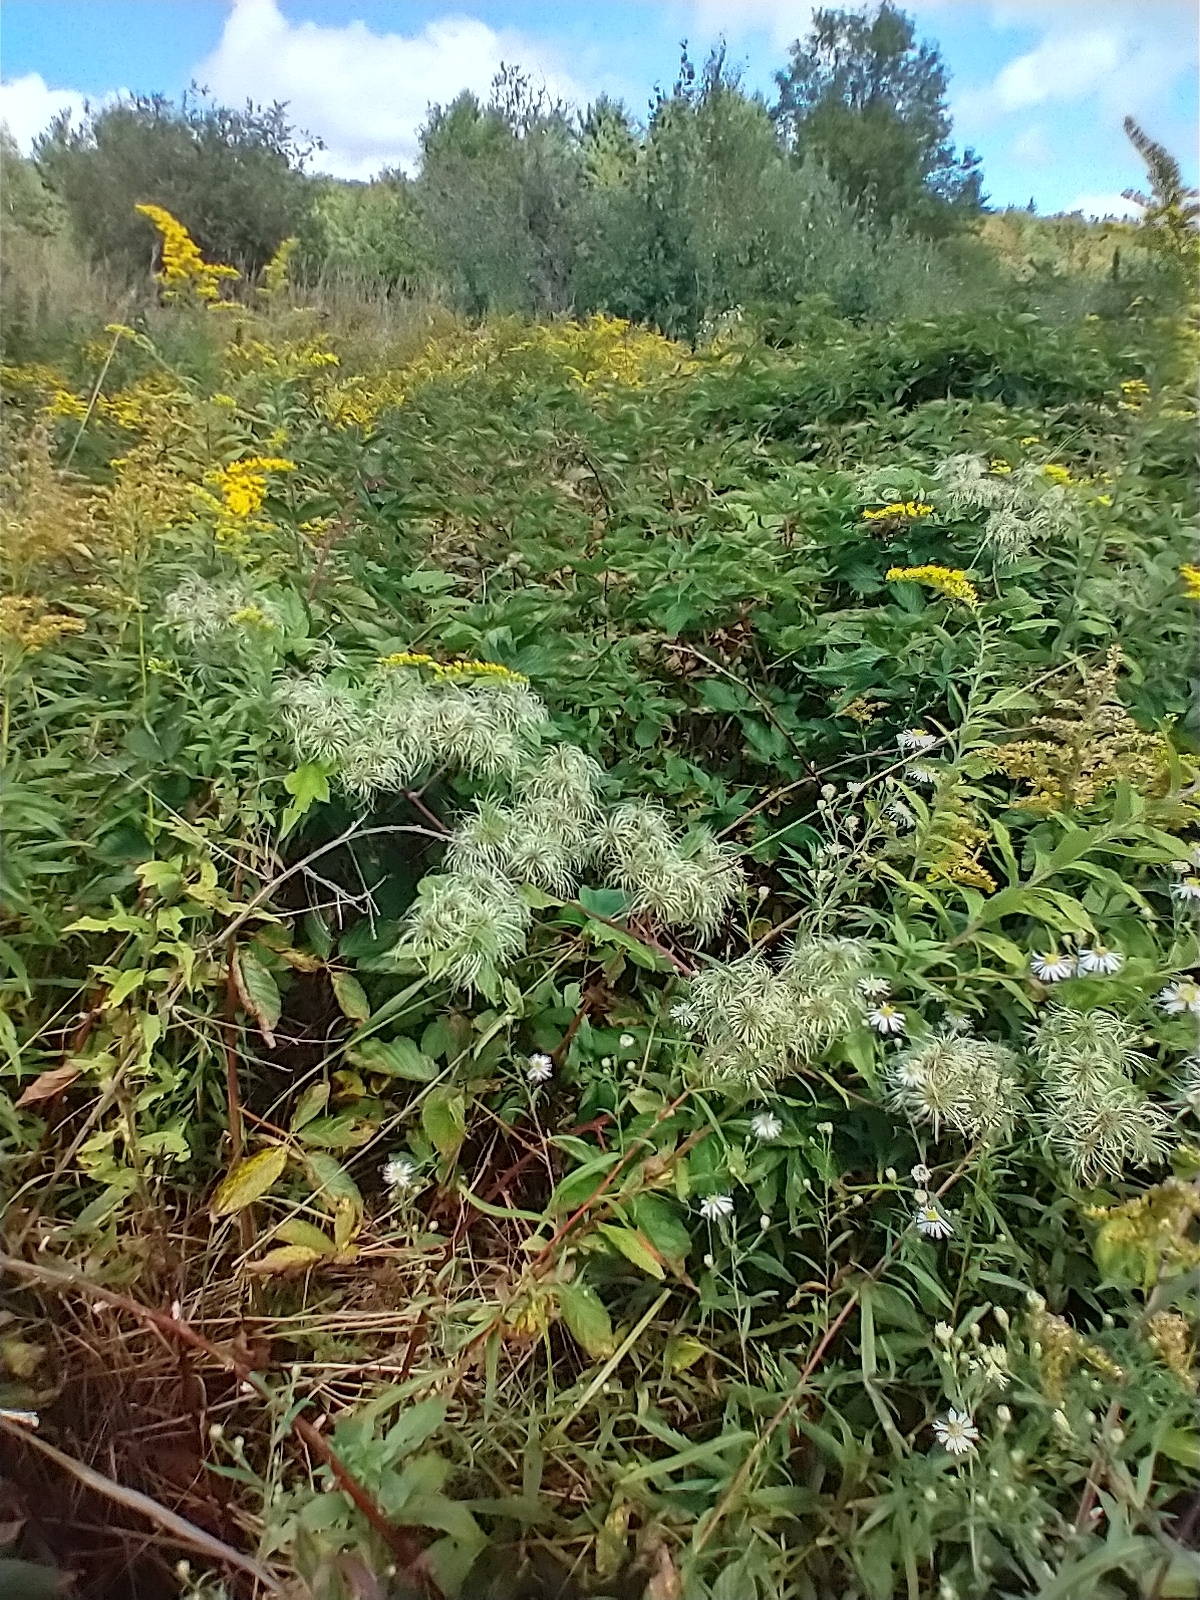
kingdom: Plantae
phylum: Tracheophyta
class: Magnoliopsida
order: Ranunculales
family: Ranunculaceae
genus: Clematis
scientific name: Clematis virginiana
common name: Virgin's-bower
